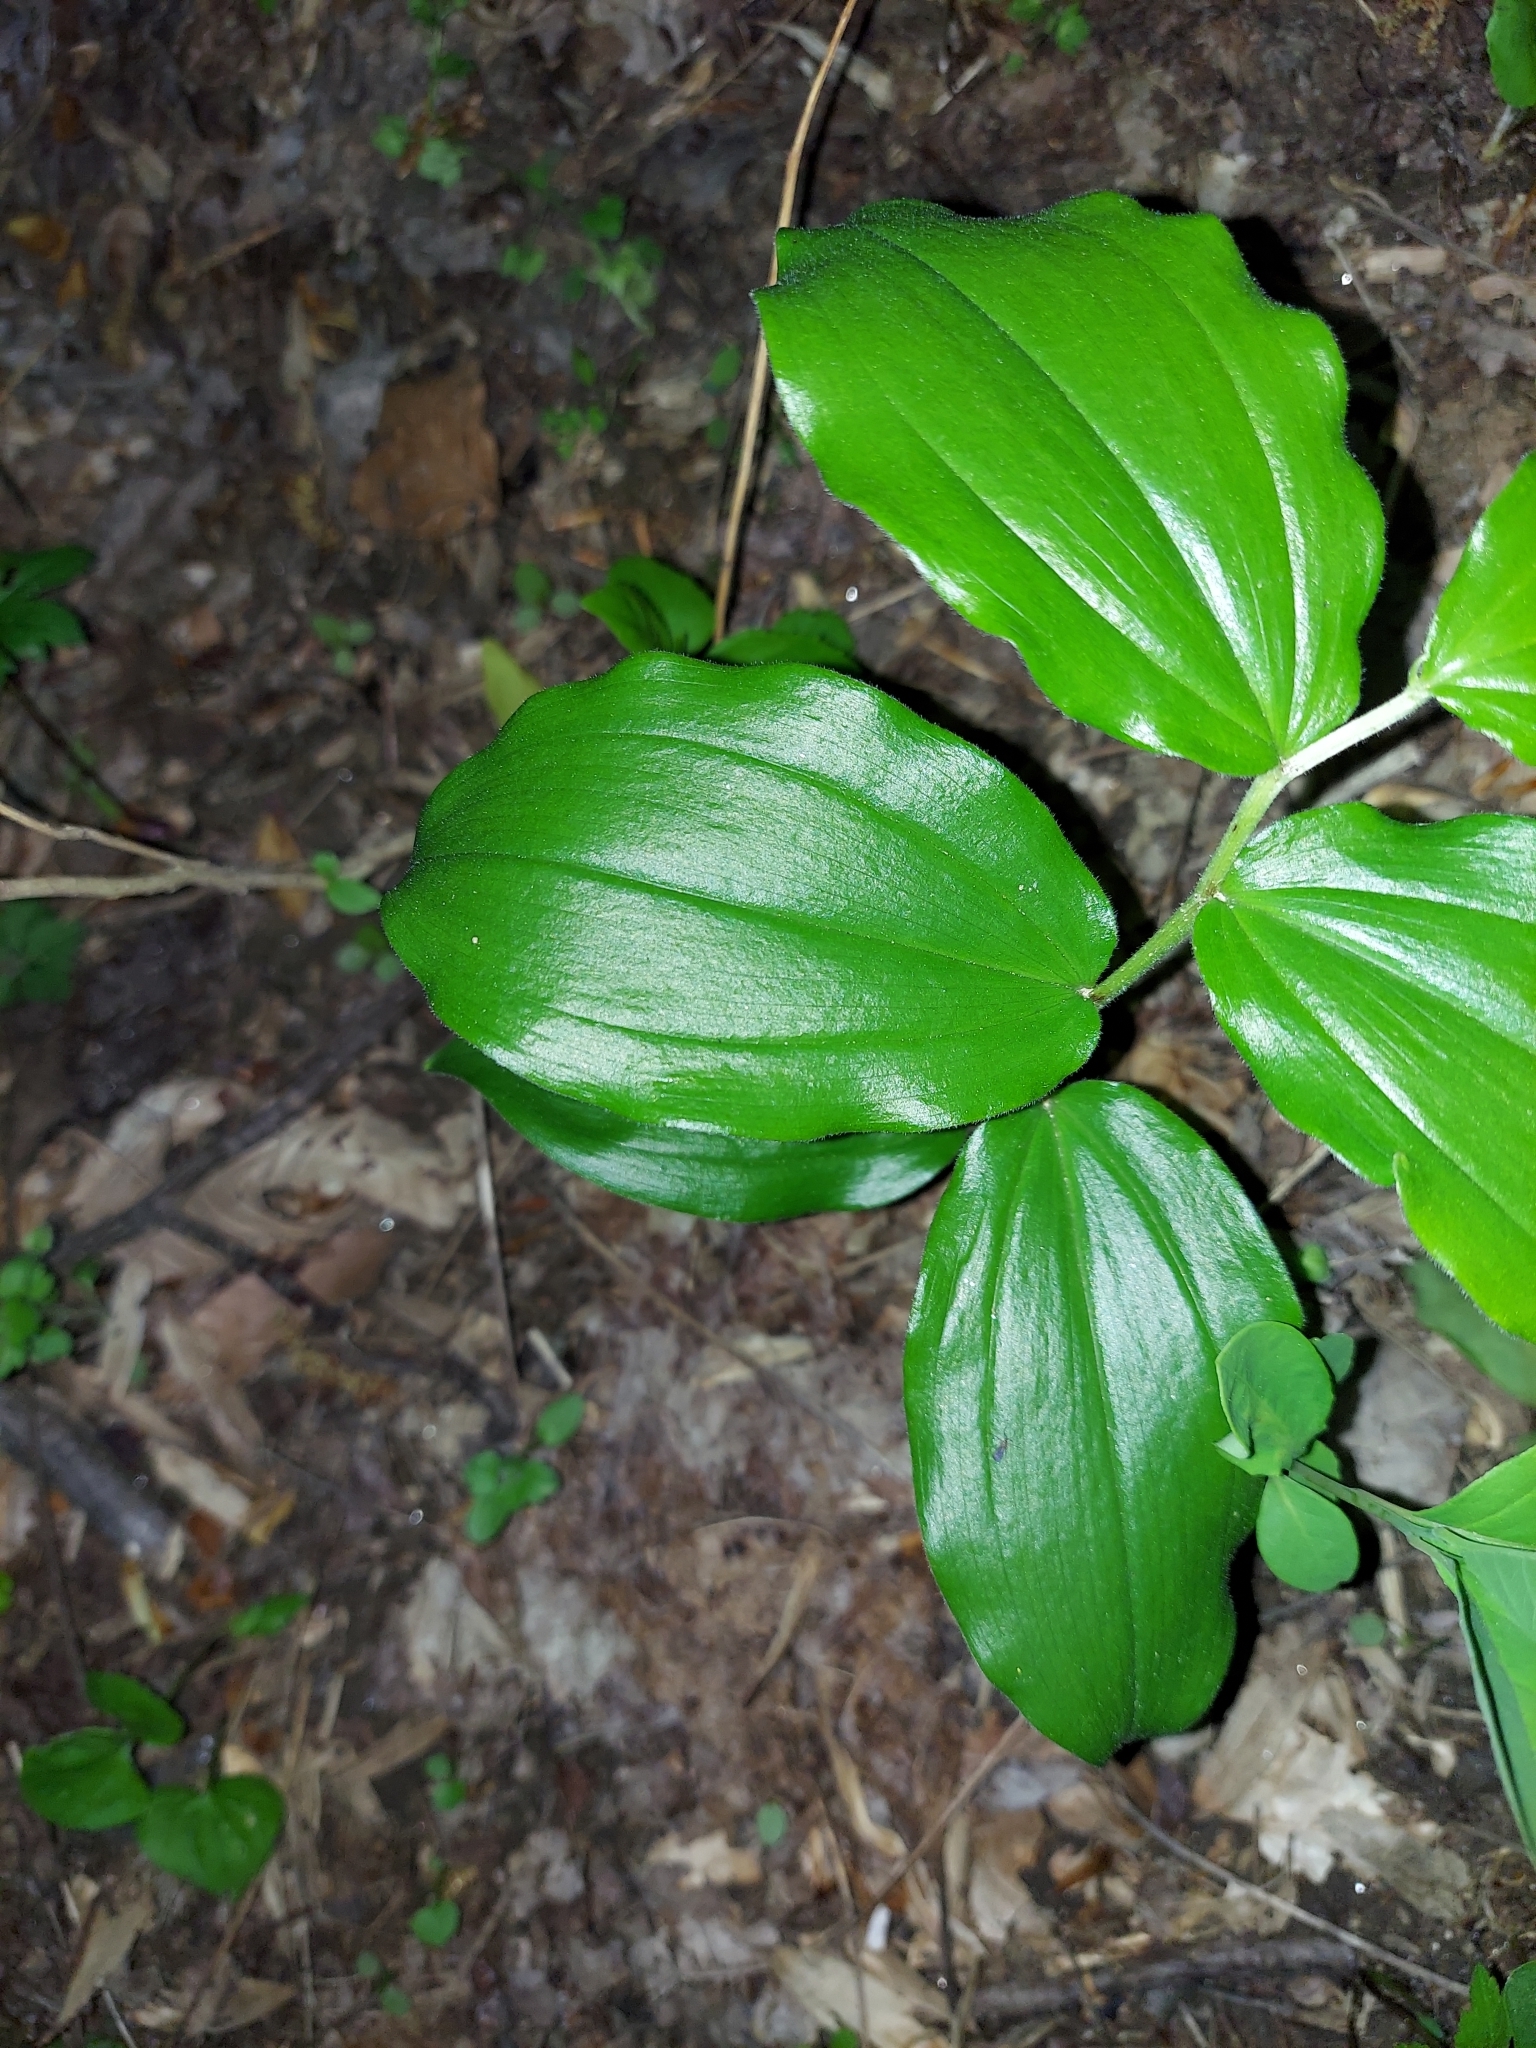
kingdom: Plantae
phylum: Tracheophyta
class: Liliopsida
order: Asparagales
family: Asparagaceae
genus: Maianthemum
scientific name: Maianthemum racemosum
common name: False spikenard
